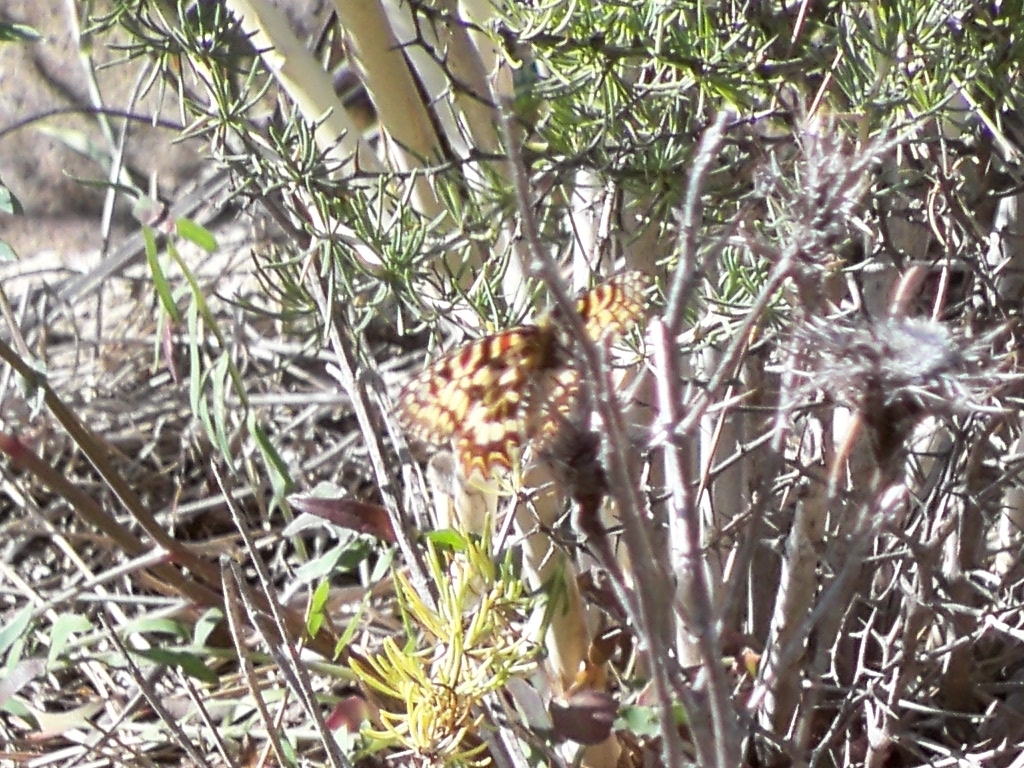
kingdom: Animalia
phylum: Arthropoda
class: Insecta
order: Lepidoptera
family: Papilionidae
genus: Zerynthia
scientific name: Zerynthia rumina
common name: Spanish festoon
